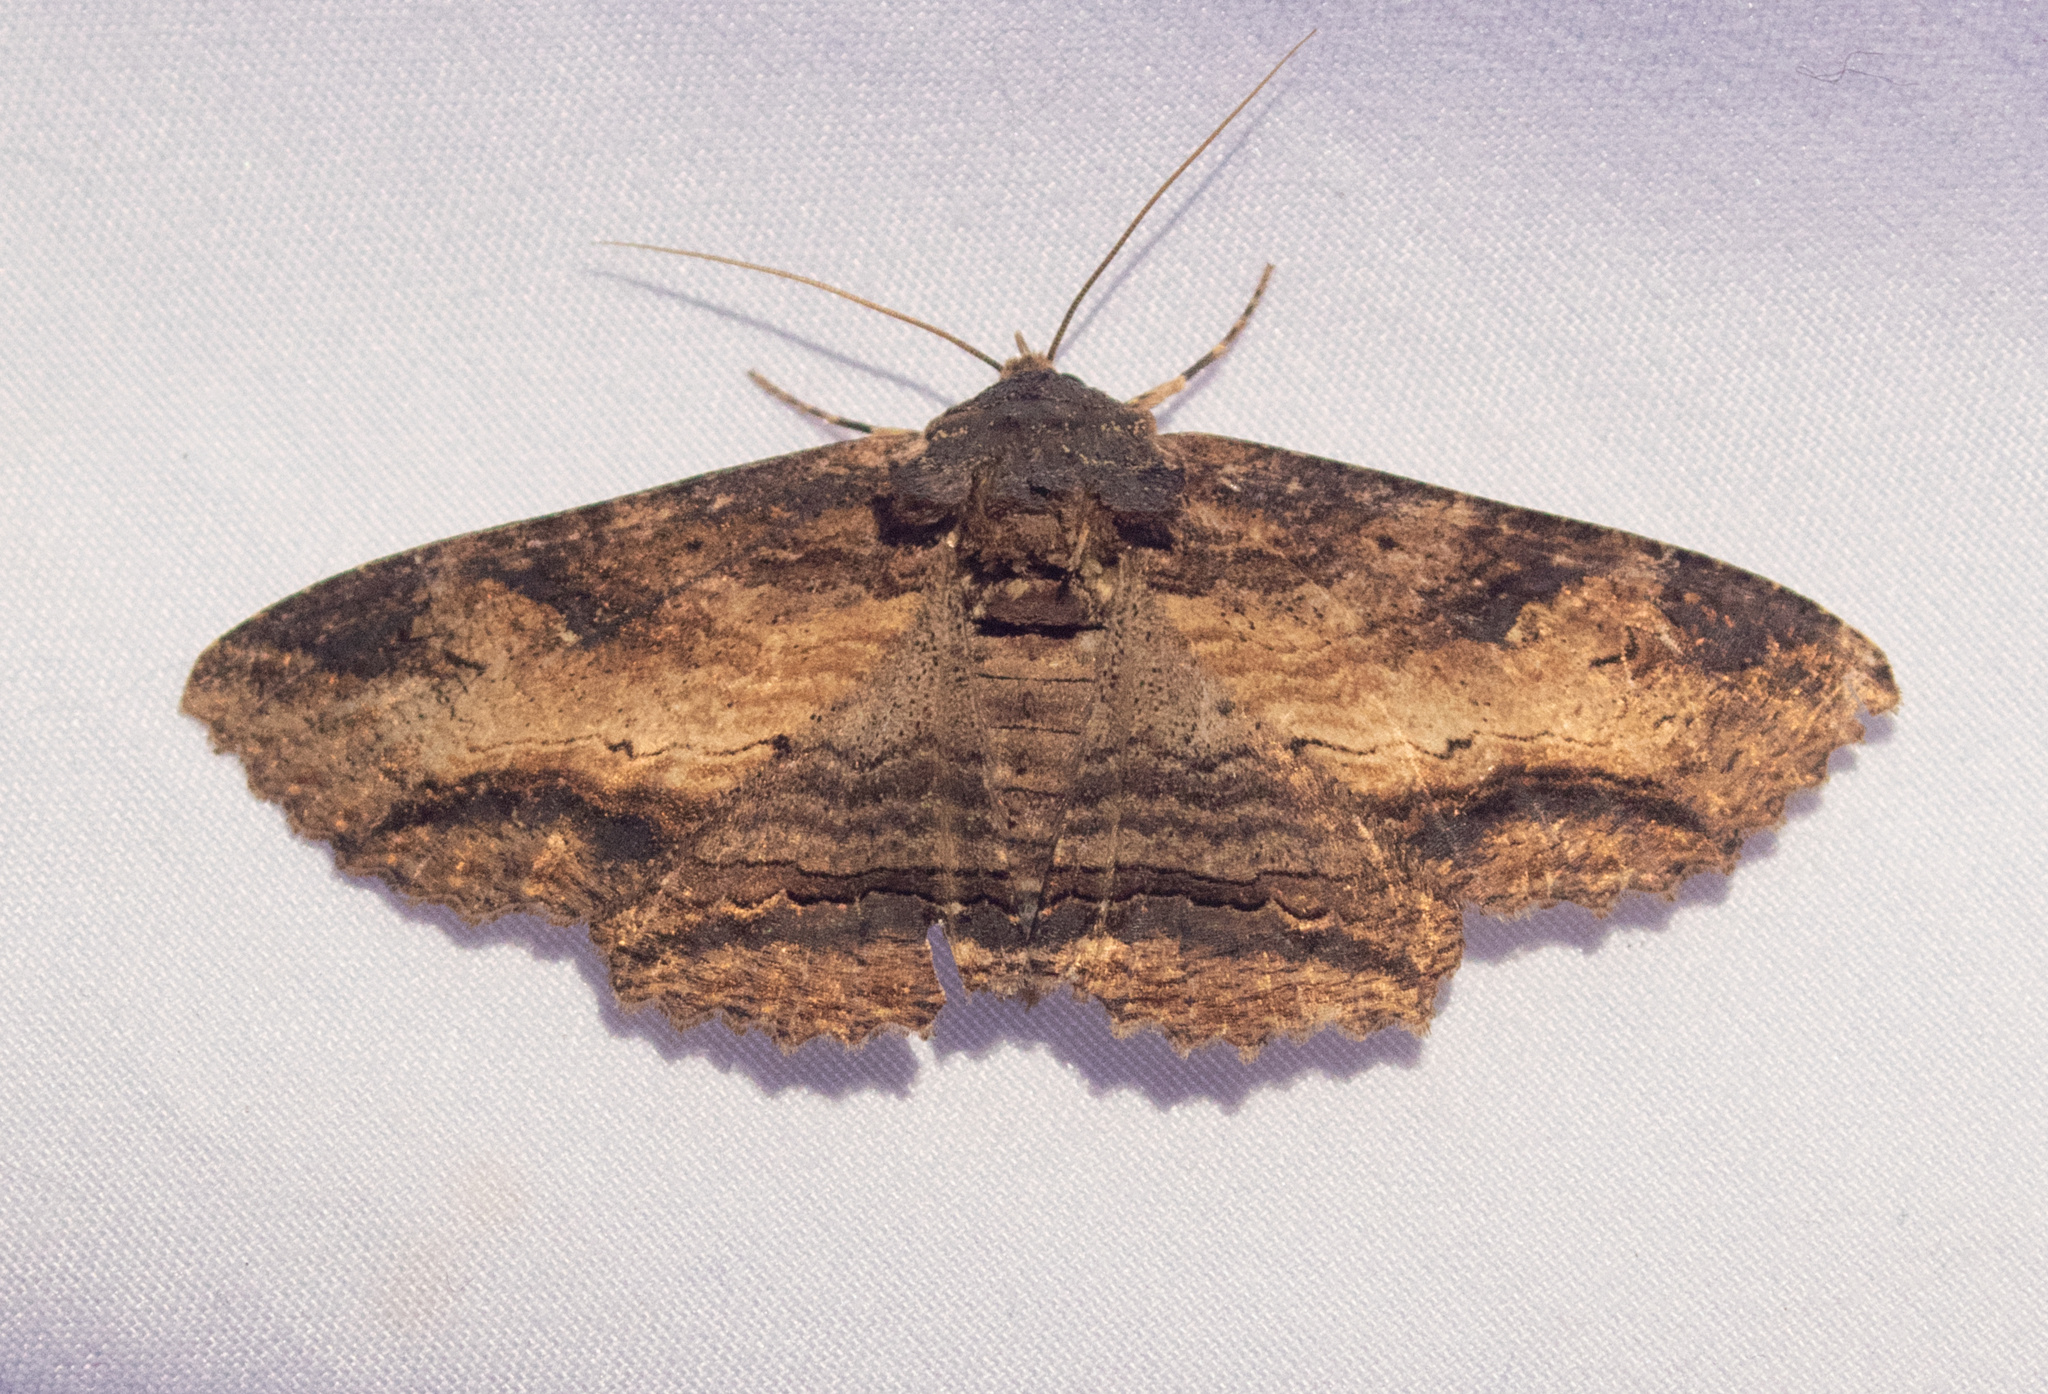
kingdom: Animalia
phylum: Arthropoda
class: Insecta
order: Lepidoptera
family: Erebidae
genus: Zale
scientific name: Zale lunata
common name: Lunate zale moth
